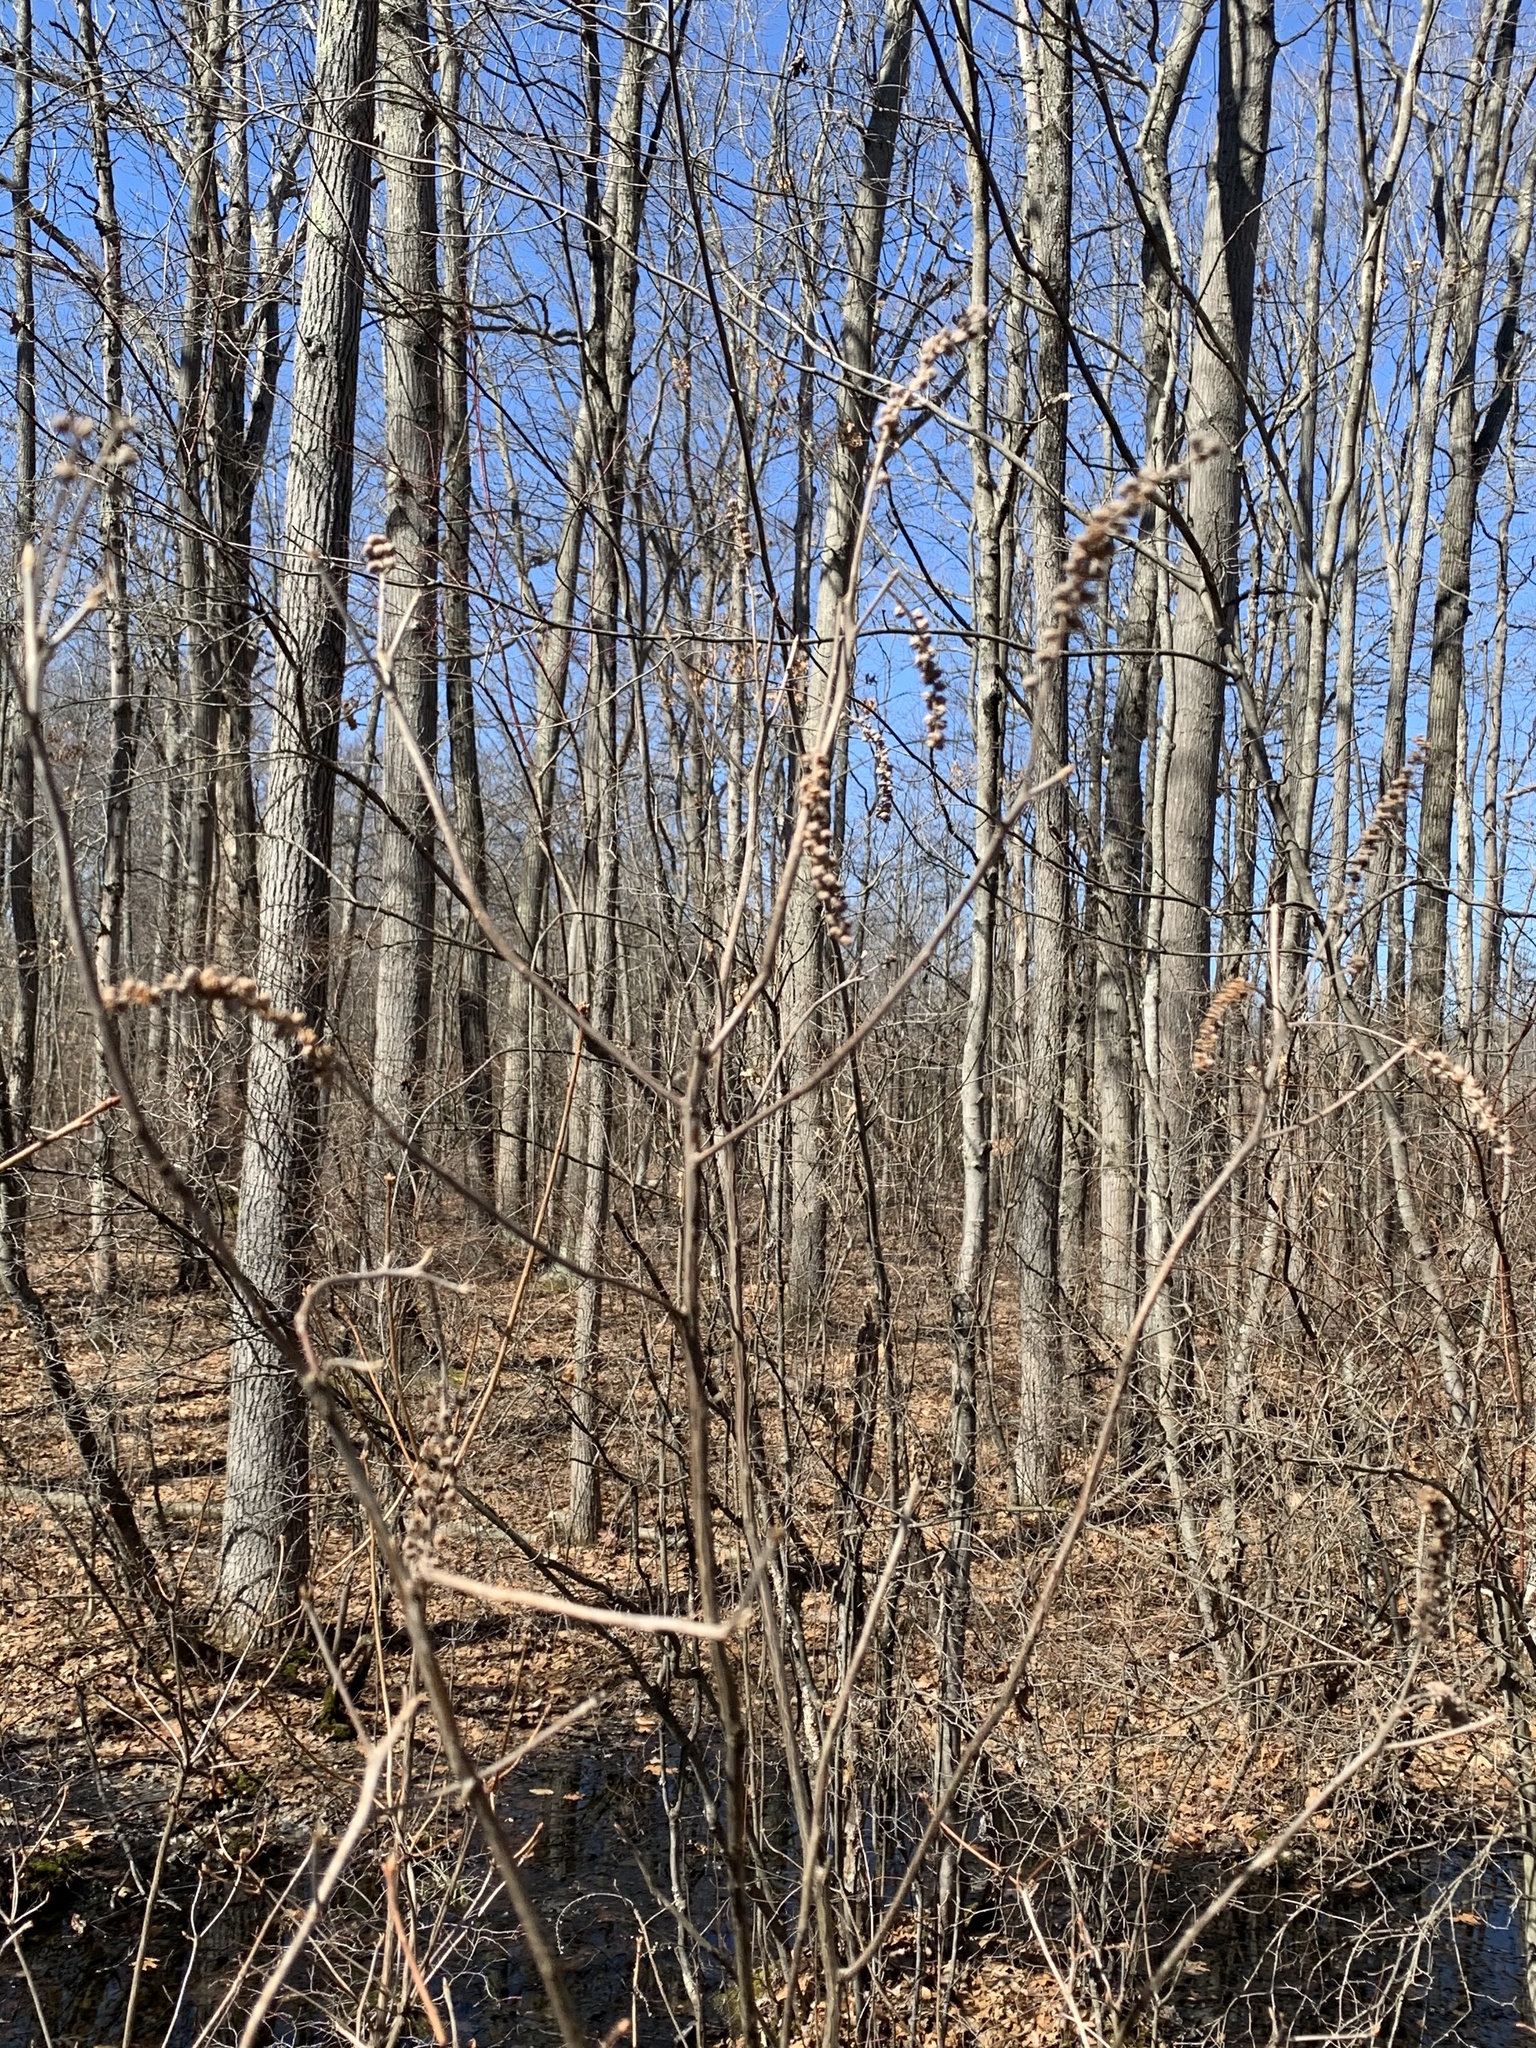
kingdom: Plantae
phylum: Tracheophyta
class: Magnoliopsida
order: Ericales
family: Clethraceae
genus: Clethra
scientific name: Clethra alnifolia
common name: Sweet pepperbush
